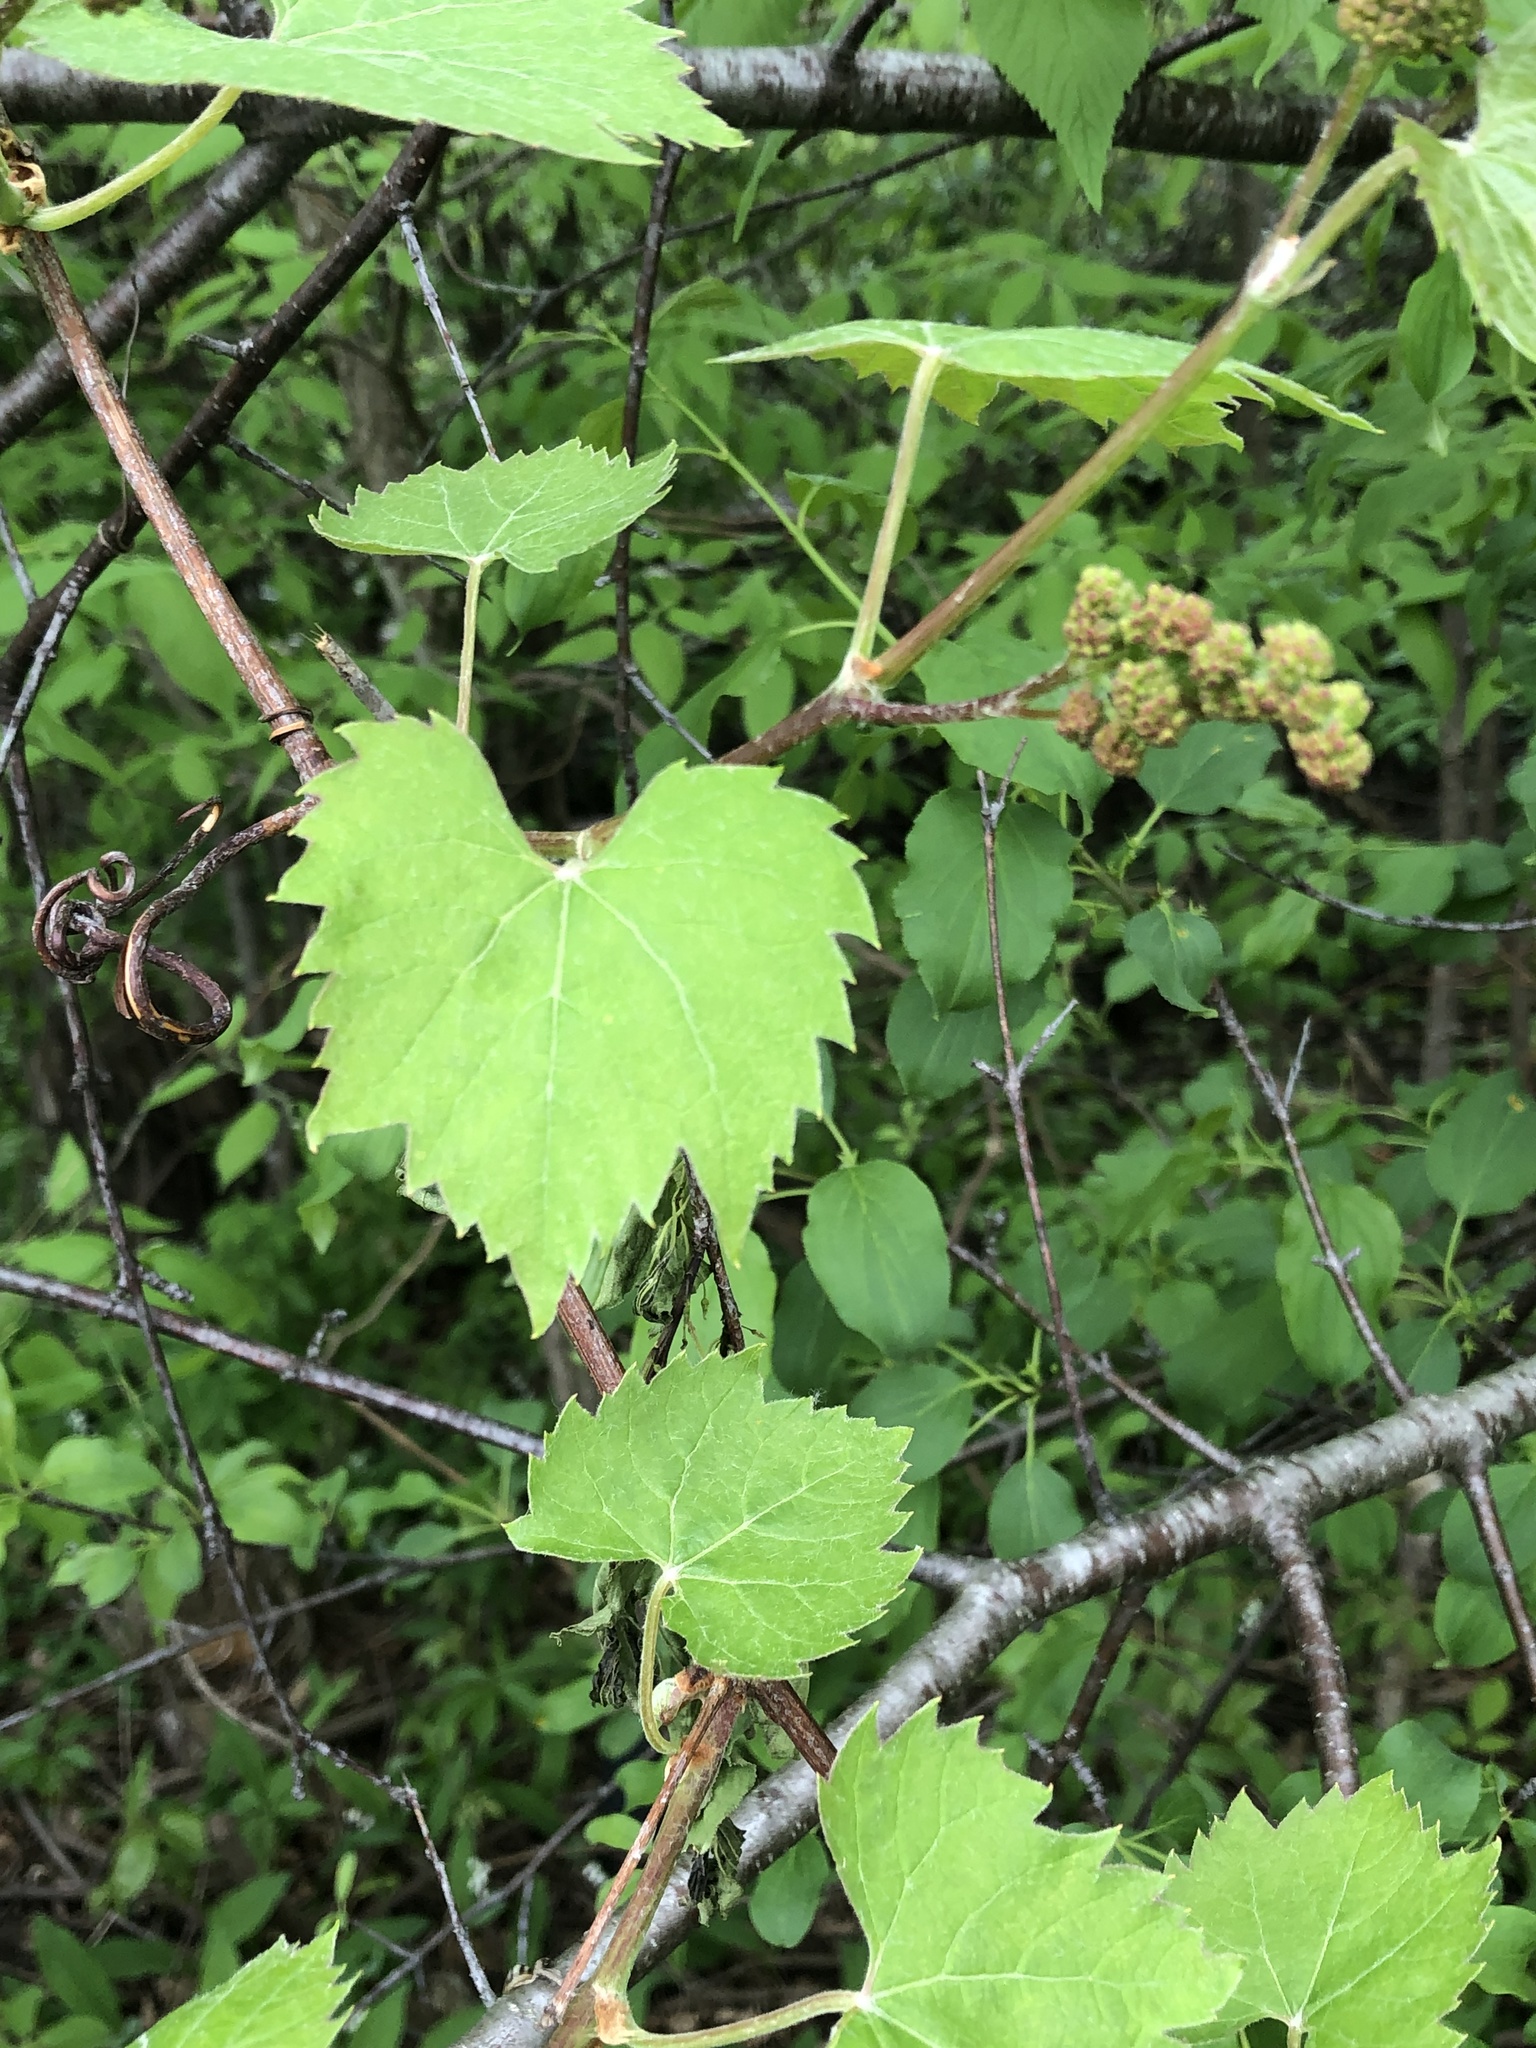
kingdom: Plantae
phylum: Tracheophyta
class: Magnoliopsida
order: Vitales
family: Vitaceae
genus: Vitis
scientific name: Vitis riparia
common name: Frost grape
